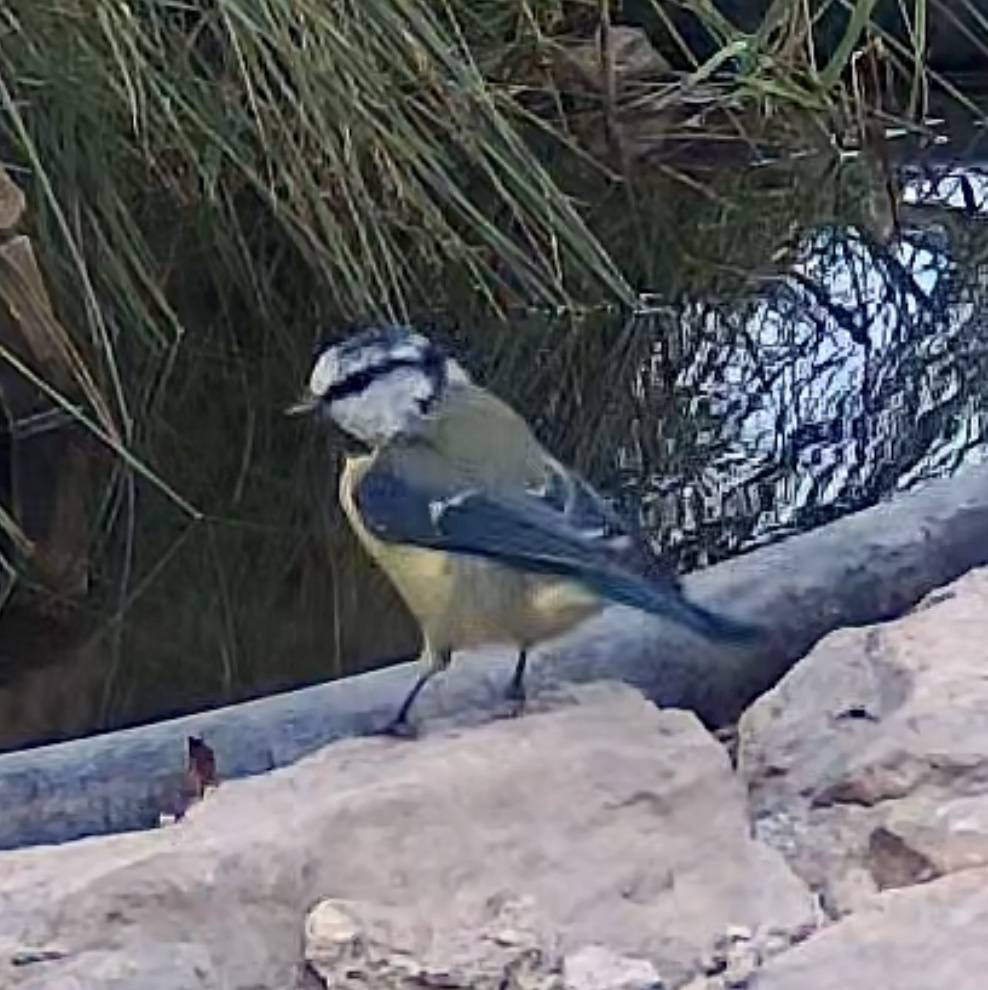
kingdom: Animalia
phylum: Chordata
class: Aves
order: Passeriformes
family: Paridae
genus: Cyanistes
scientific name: Cyanistes caeruleus
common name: Eurasian blue tit
